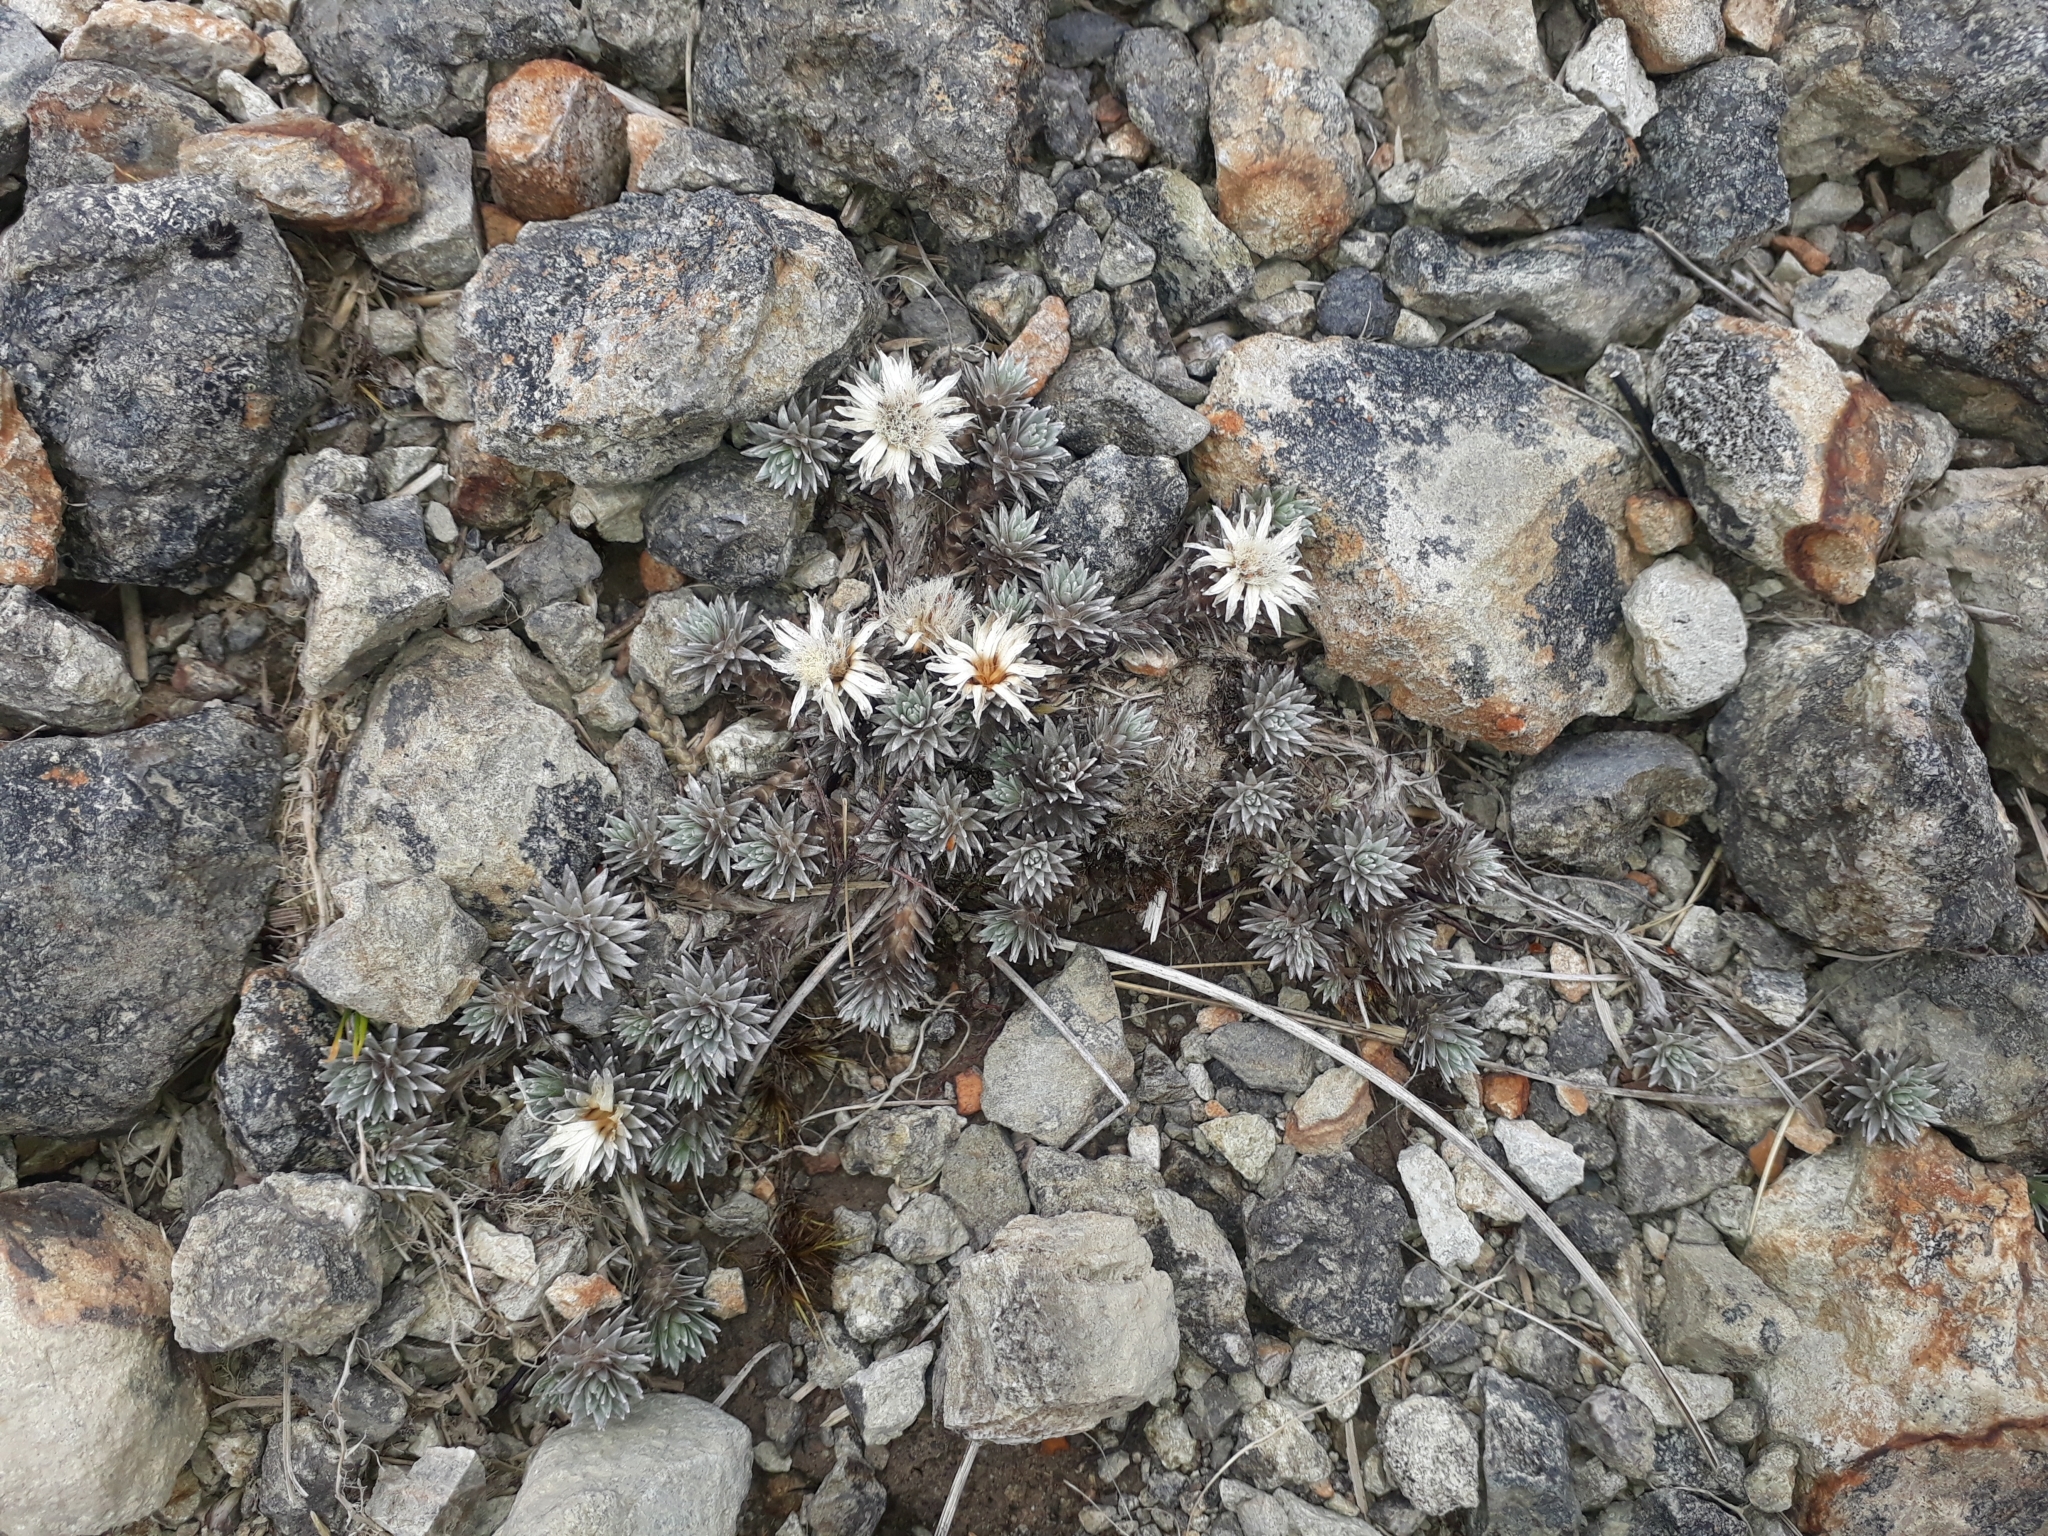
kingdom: Plantae
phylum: Tracheophyta
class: Magnoliopsida
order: Asterales
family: Asteraceae
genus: Raoulia
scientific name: Raoulia grandiflora
